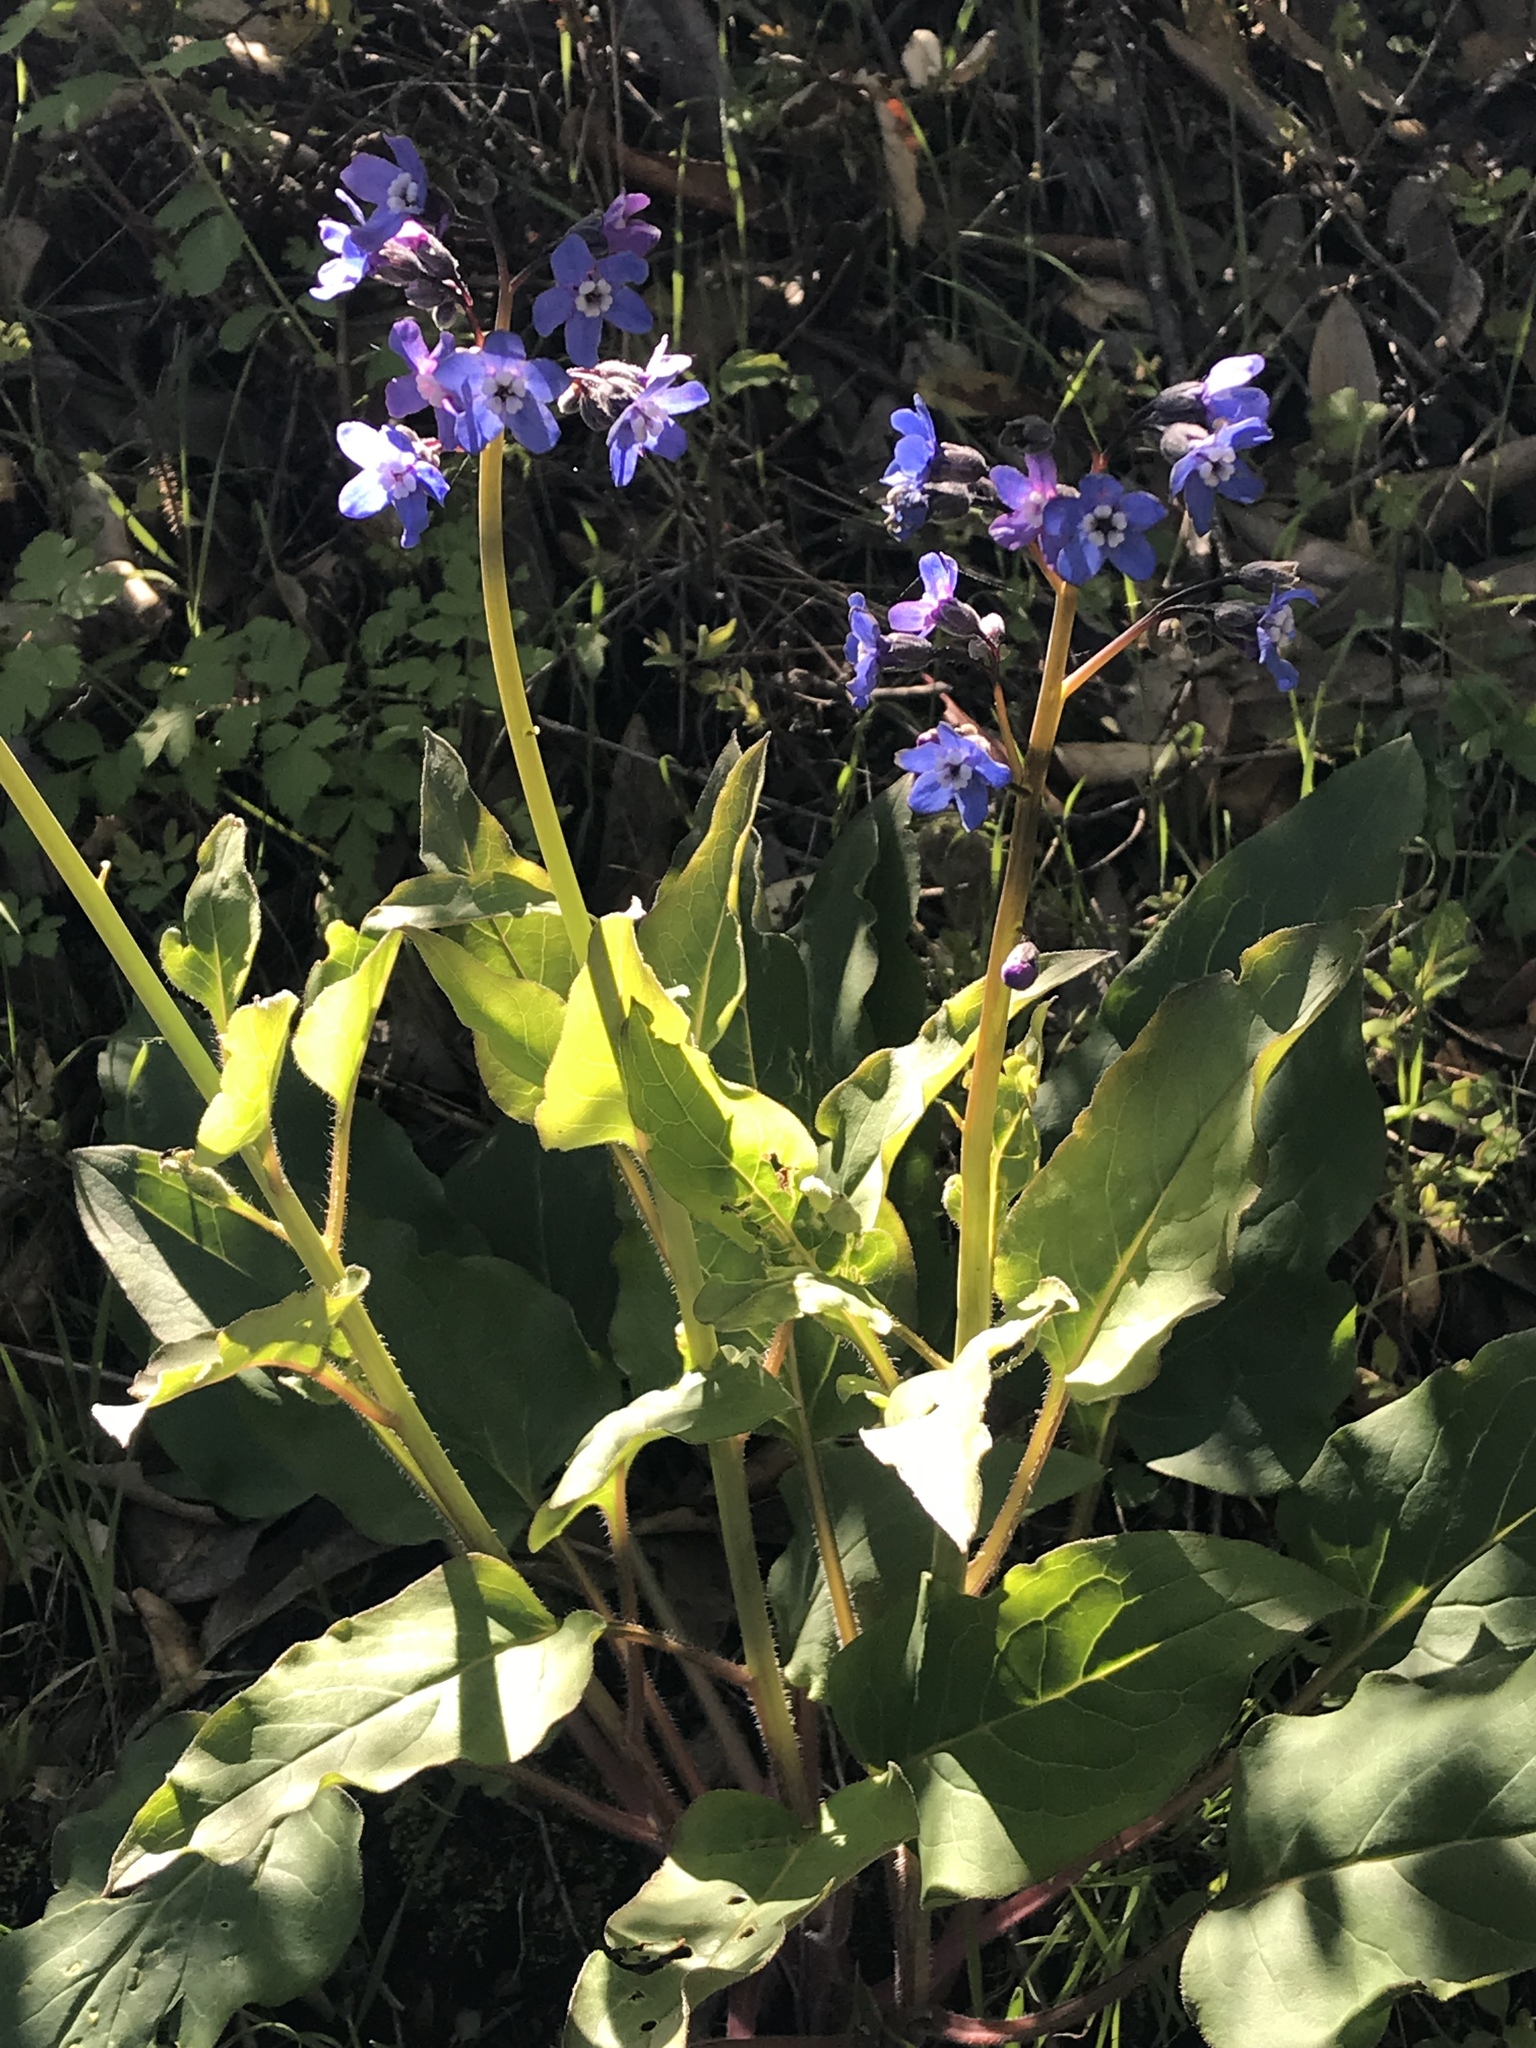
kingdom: Plantae
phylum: Tracheophyta
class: Magnoliopsida
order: Boraginales
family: Boraginaceae
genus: Adelinia
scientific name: Adelinia grande
